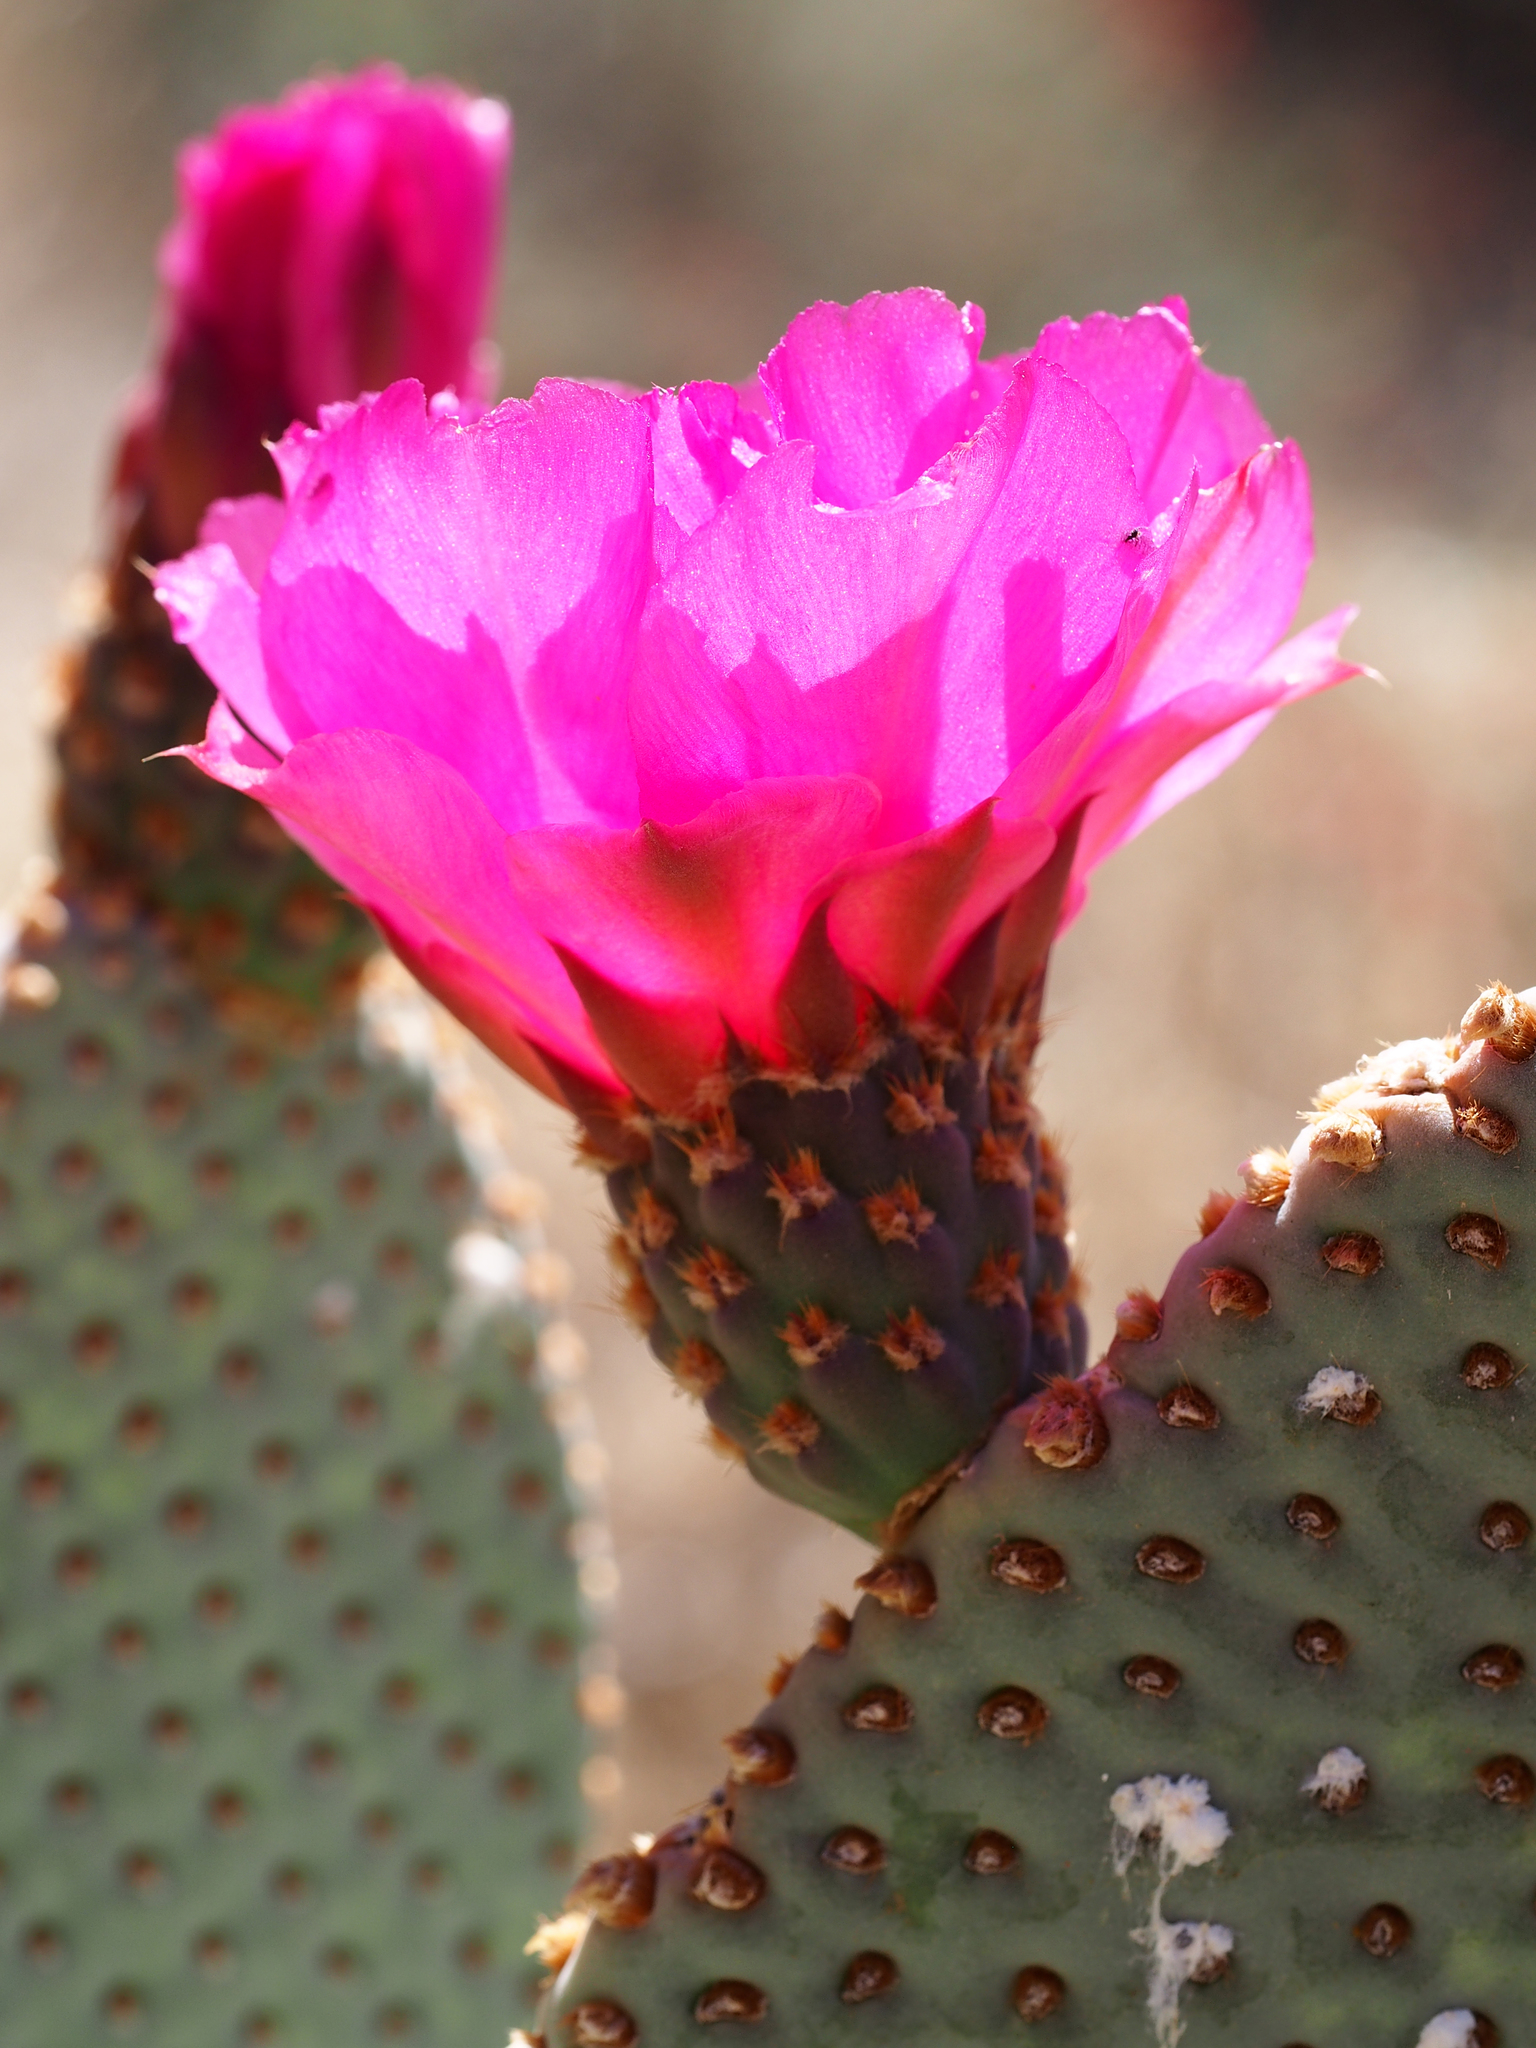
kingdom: Plantae
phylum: Tracheophyta
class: Magnoliopsida
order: Caryophyllales
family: Cactaceae
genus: Opuntia
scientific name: Opuntia basilaris
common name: Beavertail prickly-pear
